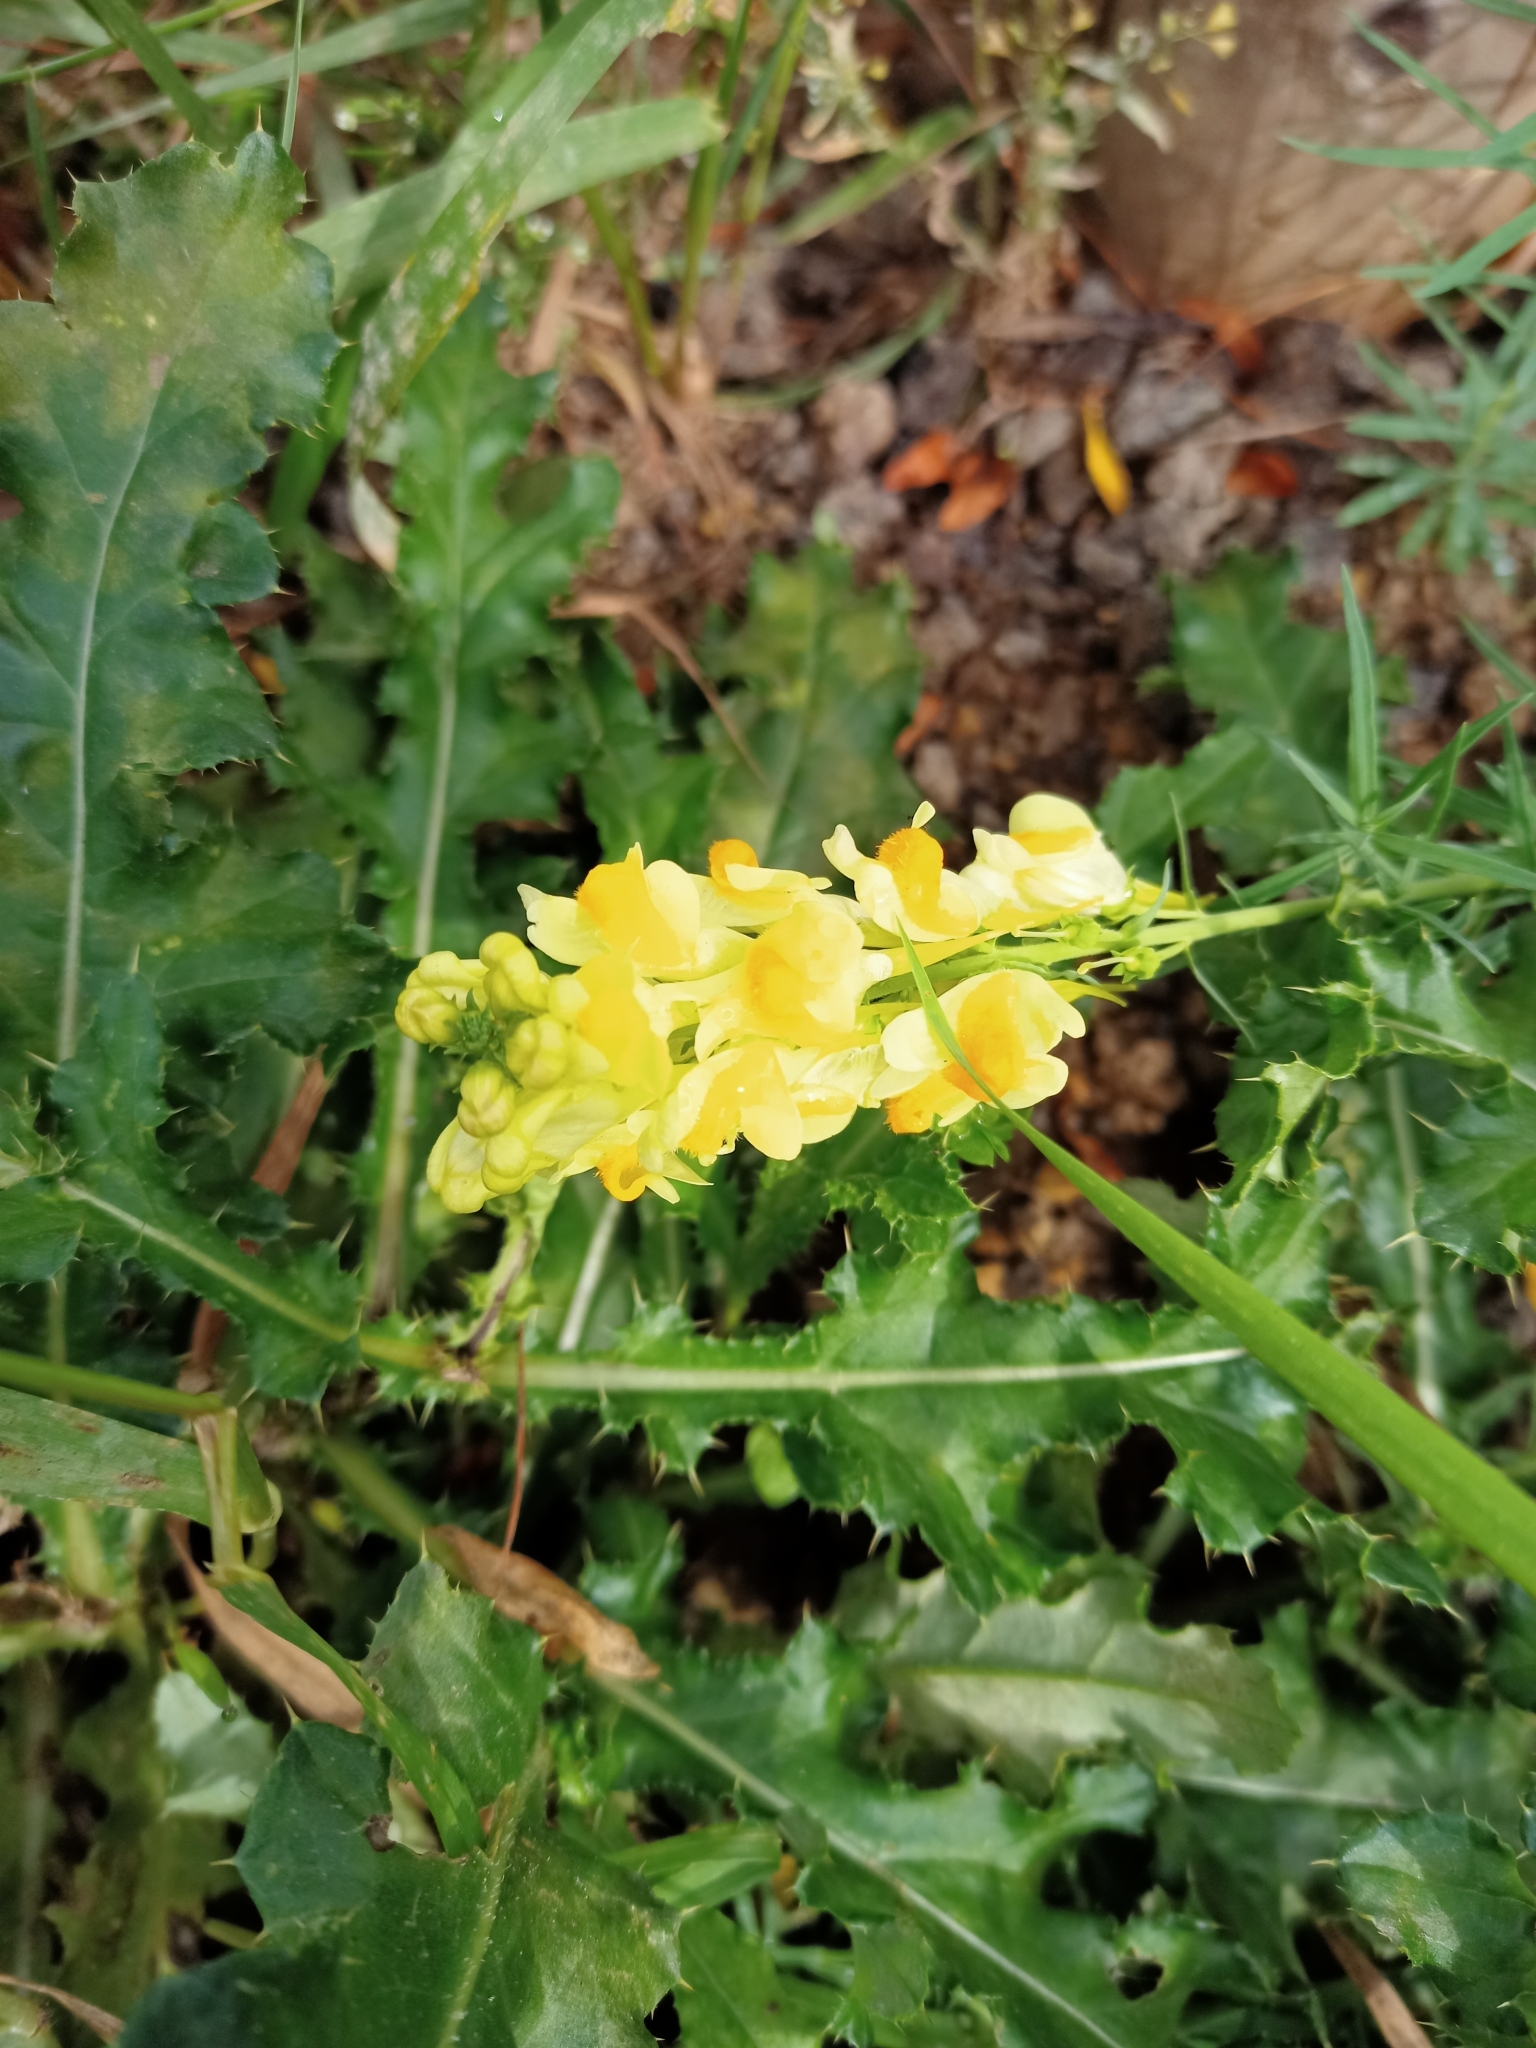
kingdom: Plantae
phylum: Tracheophyta
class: Magnoliopsida
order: Lamiales
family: Plantaginaceae
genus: Linaria
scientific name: Linaria vulgaris
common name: Butter and eggs
